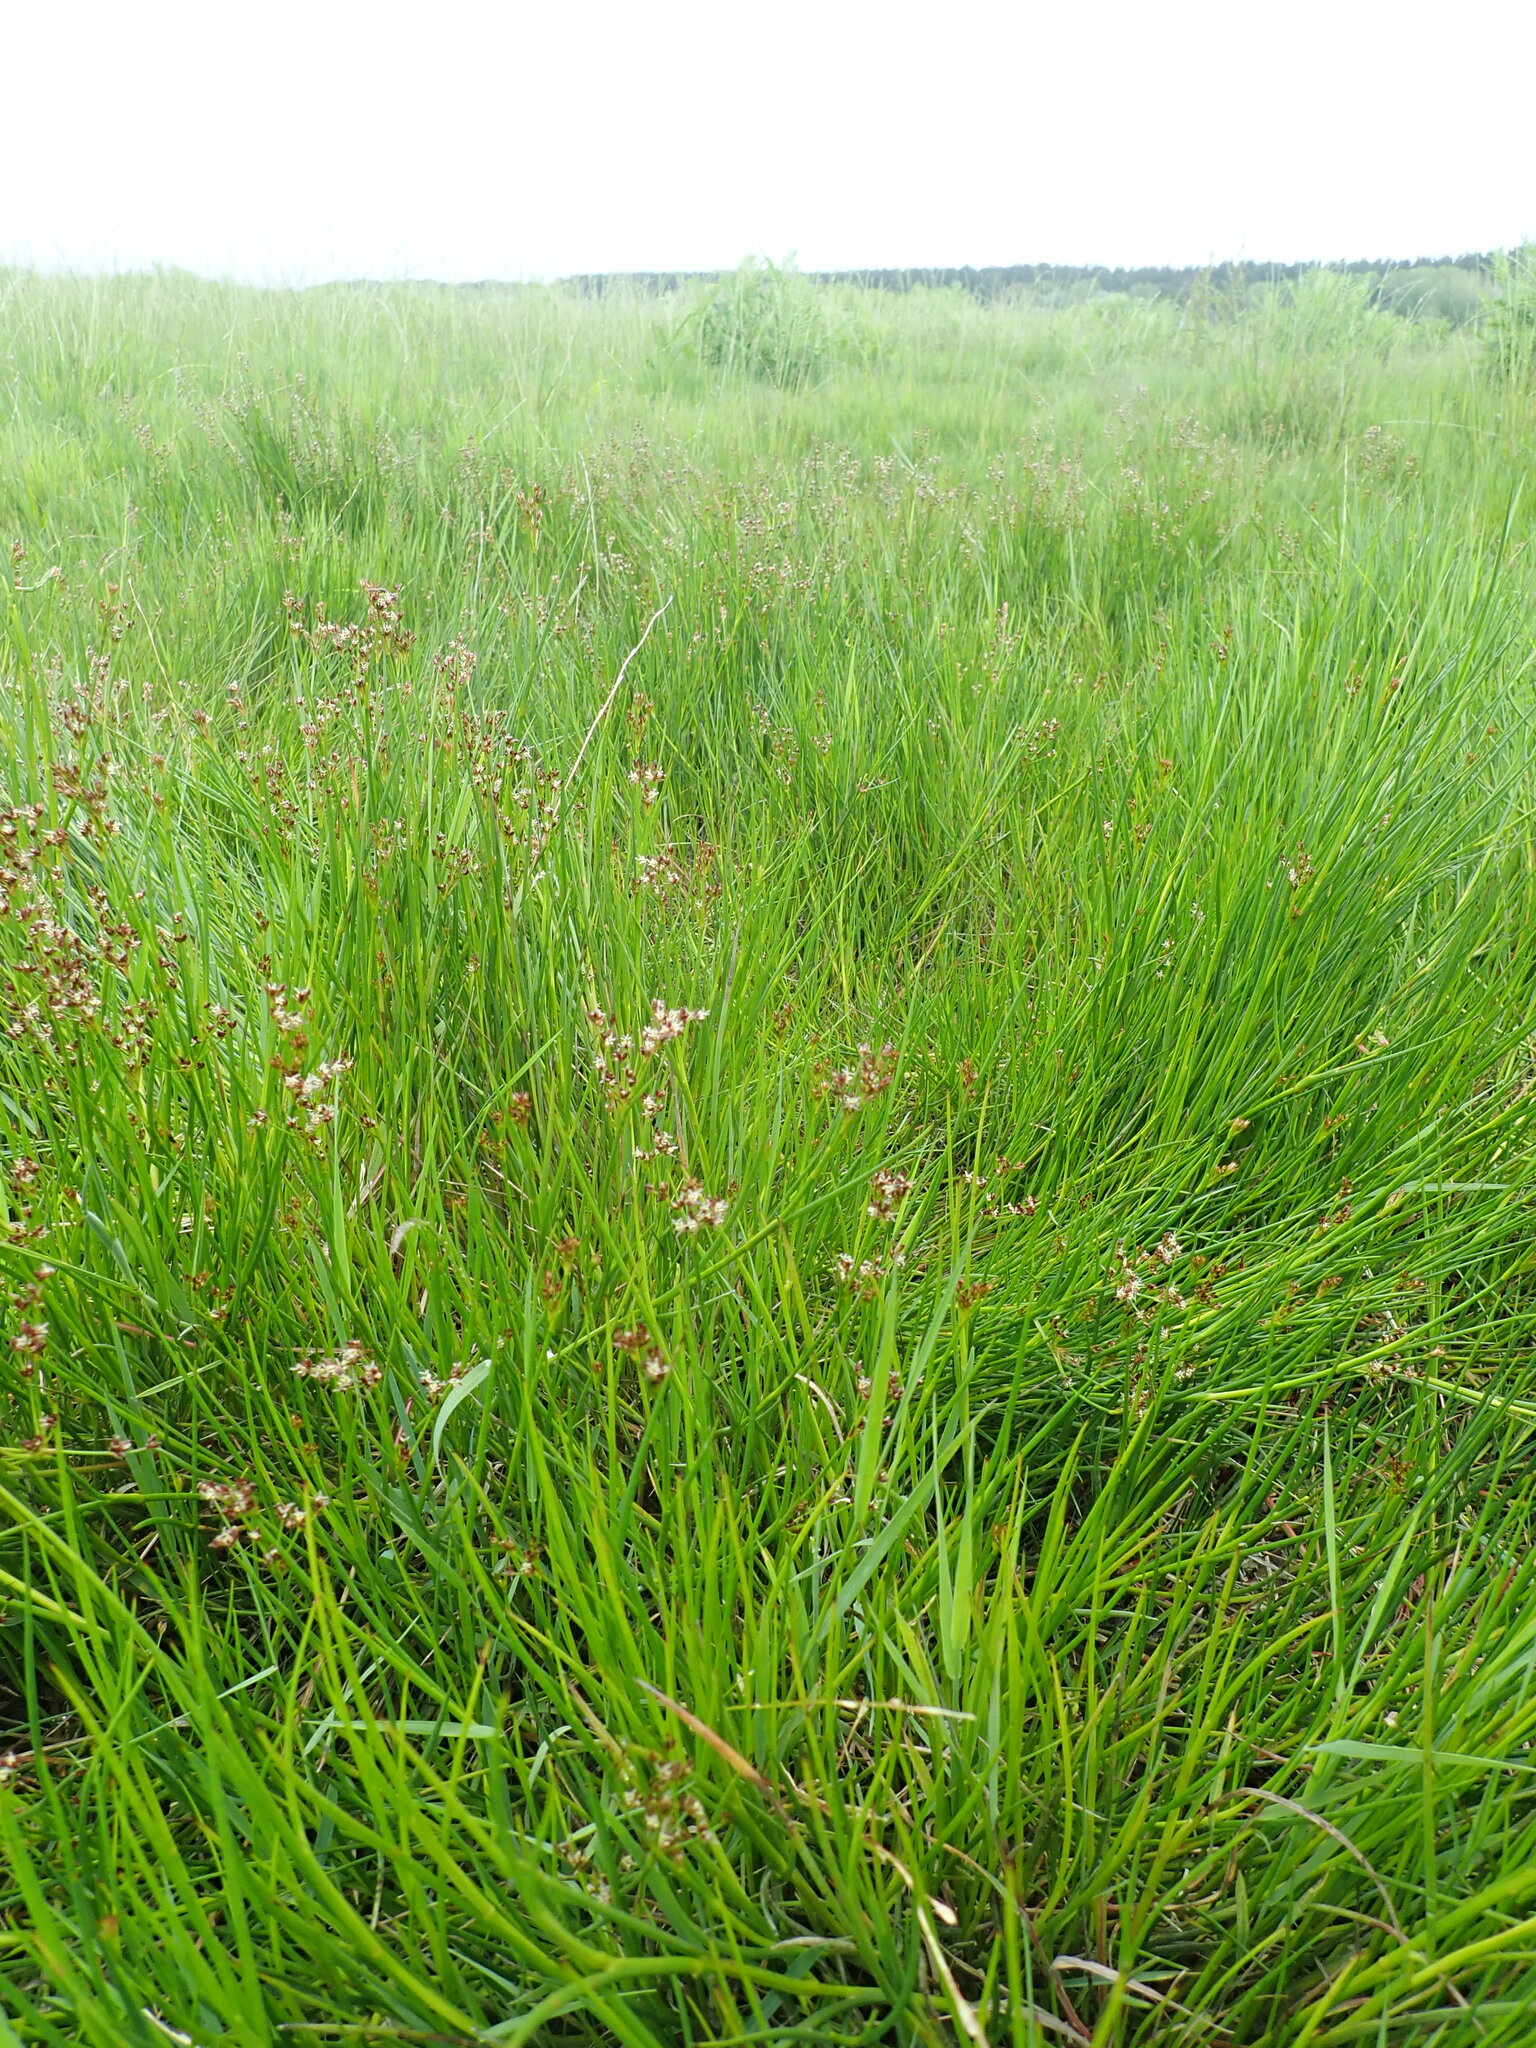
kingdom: Plantae
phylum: Tracheophyta
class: Liliopsida
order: Poales
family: Juncaceae
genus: Juncus
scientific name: Juncus articulatus
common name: Jointed rush
